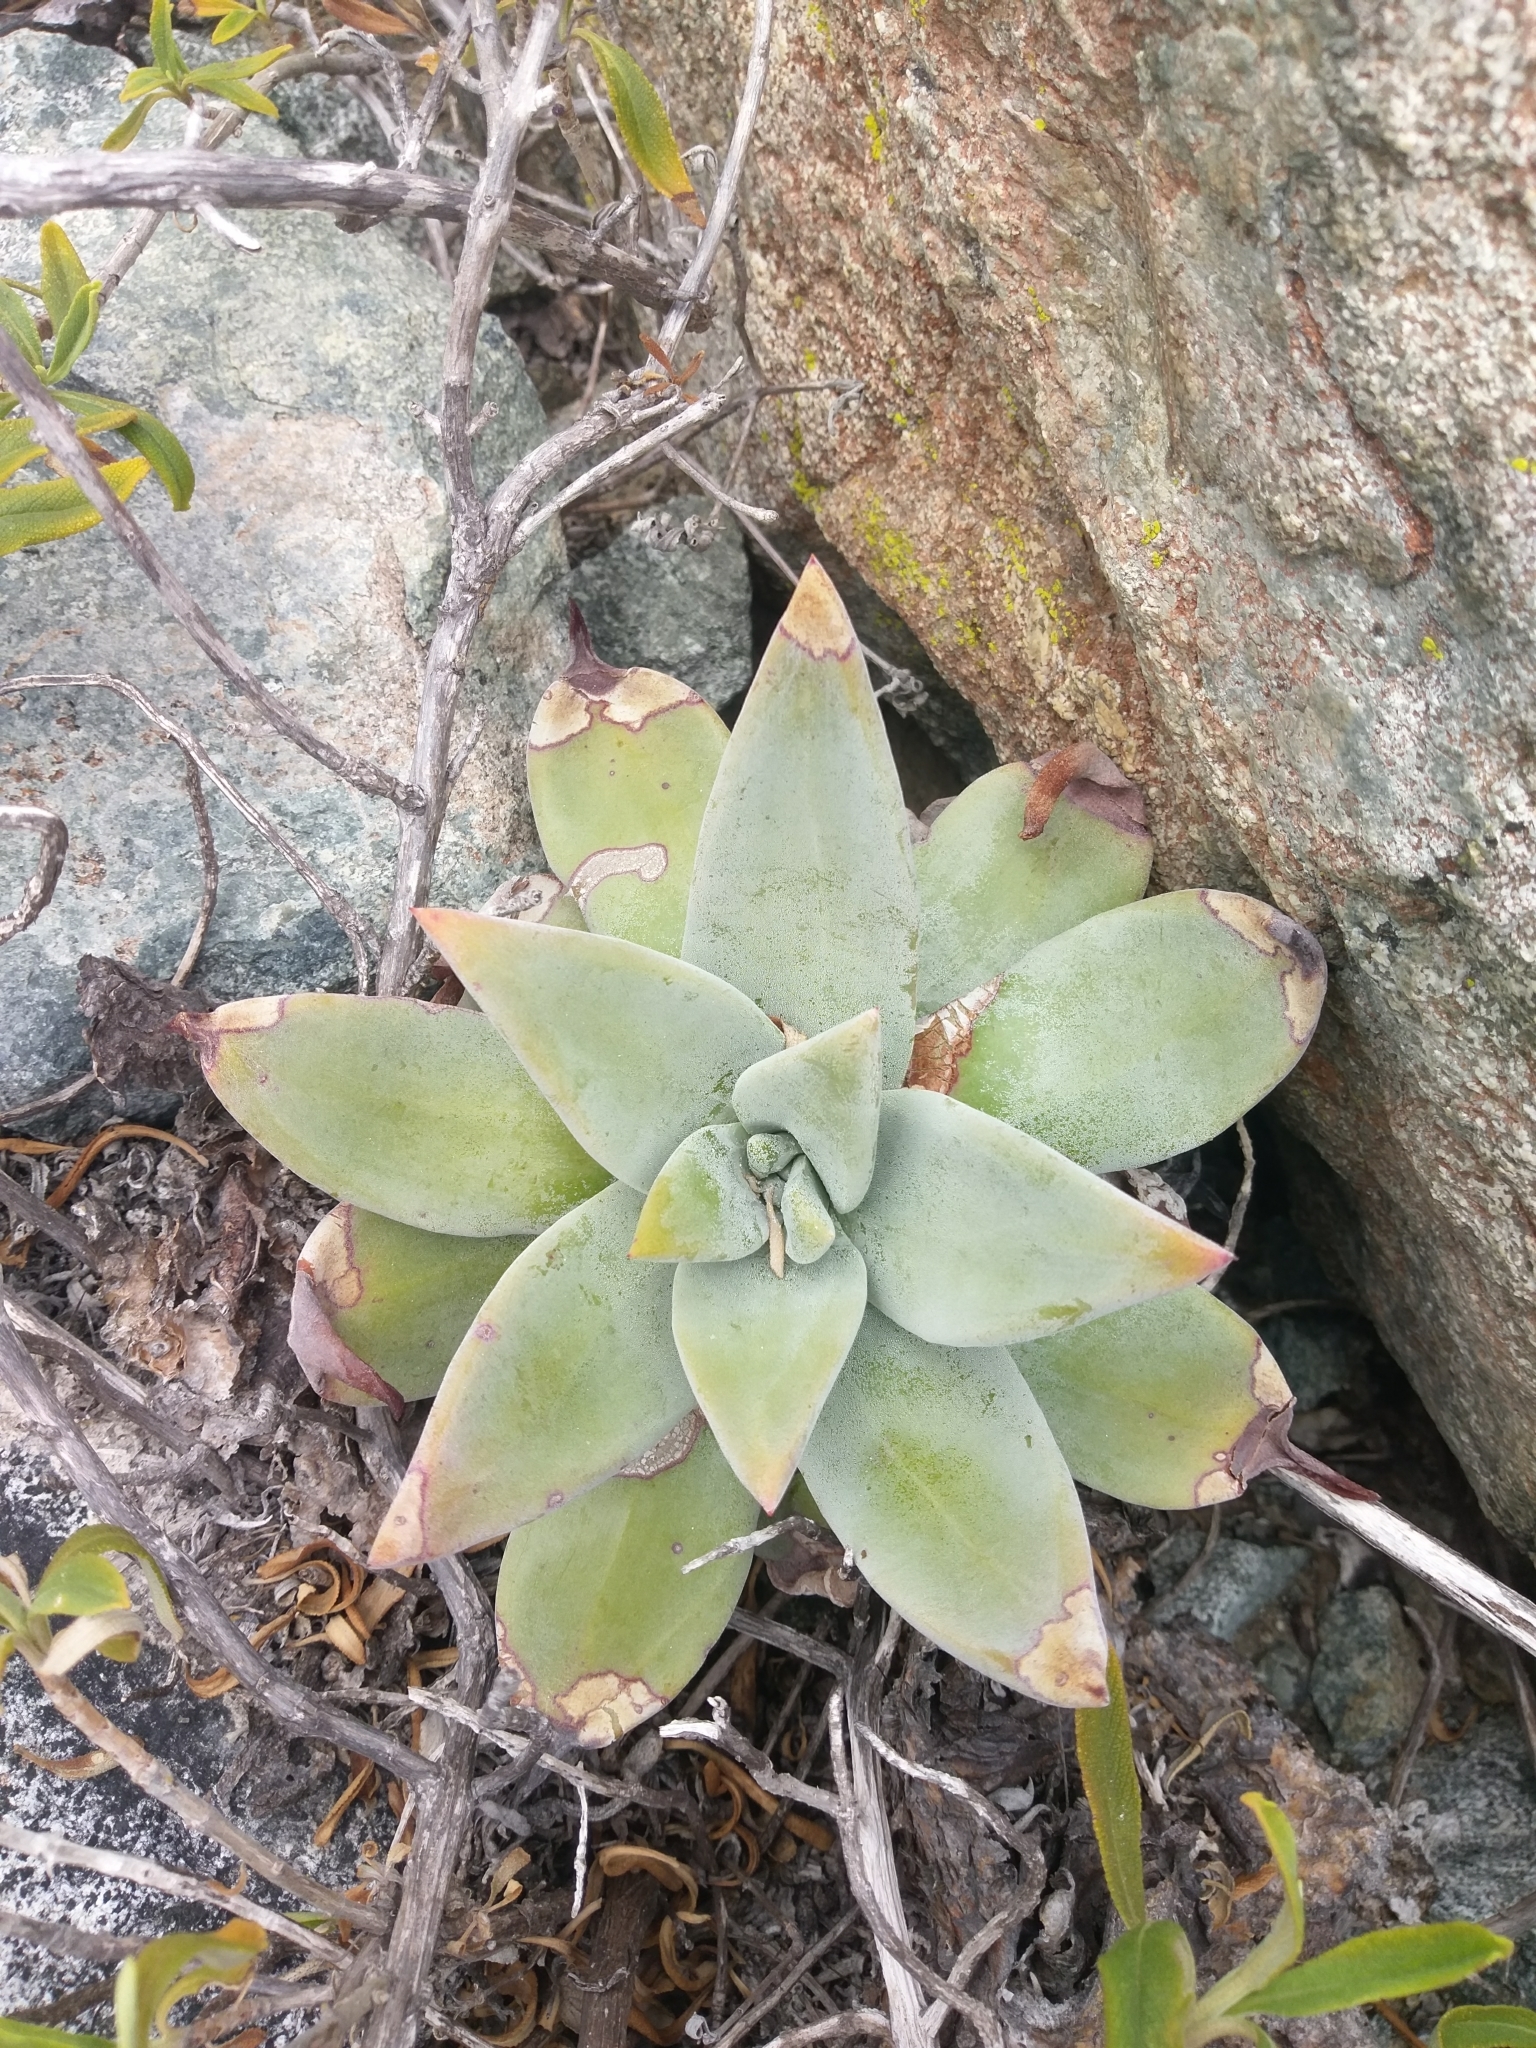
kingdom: Plantae
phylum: Tracheophyta
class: Magnoliopsida
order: Saxifragales
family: Crassulaceae
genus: Dudleya
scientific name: Dudleya virens
